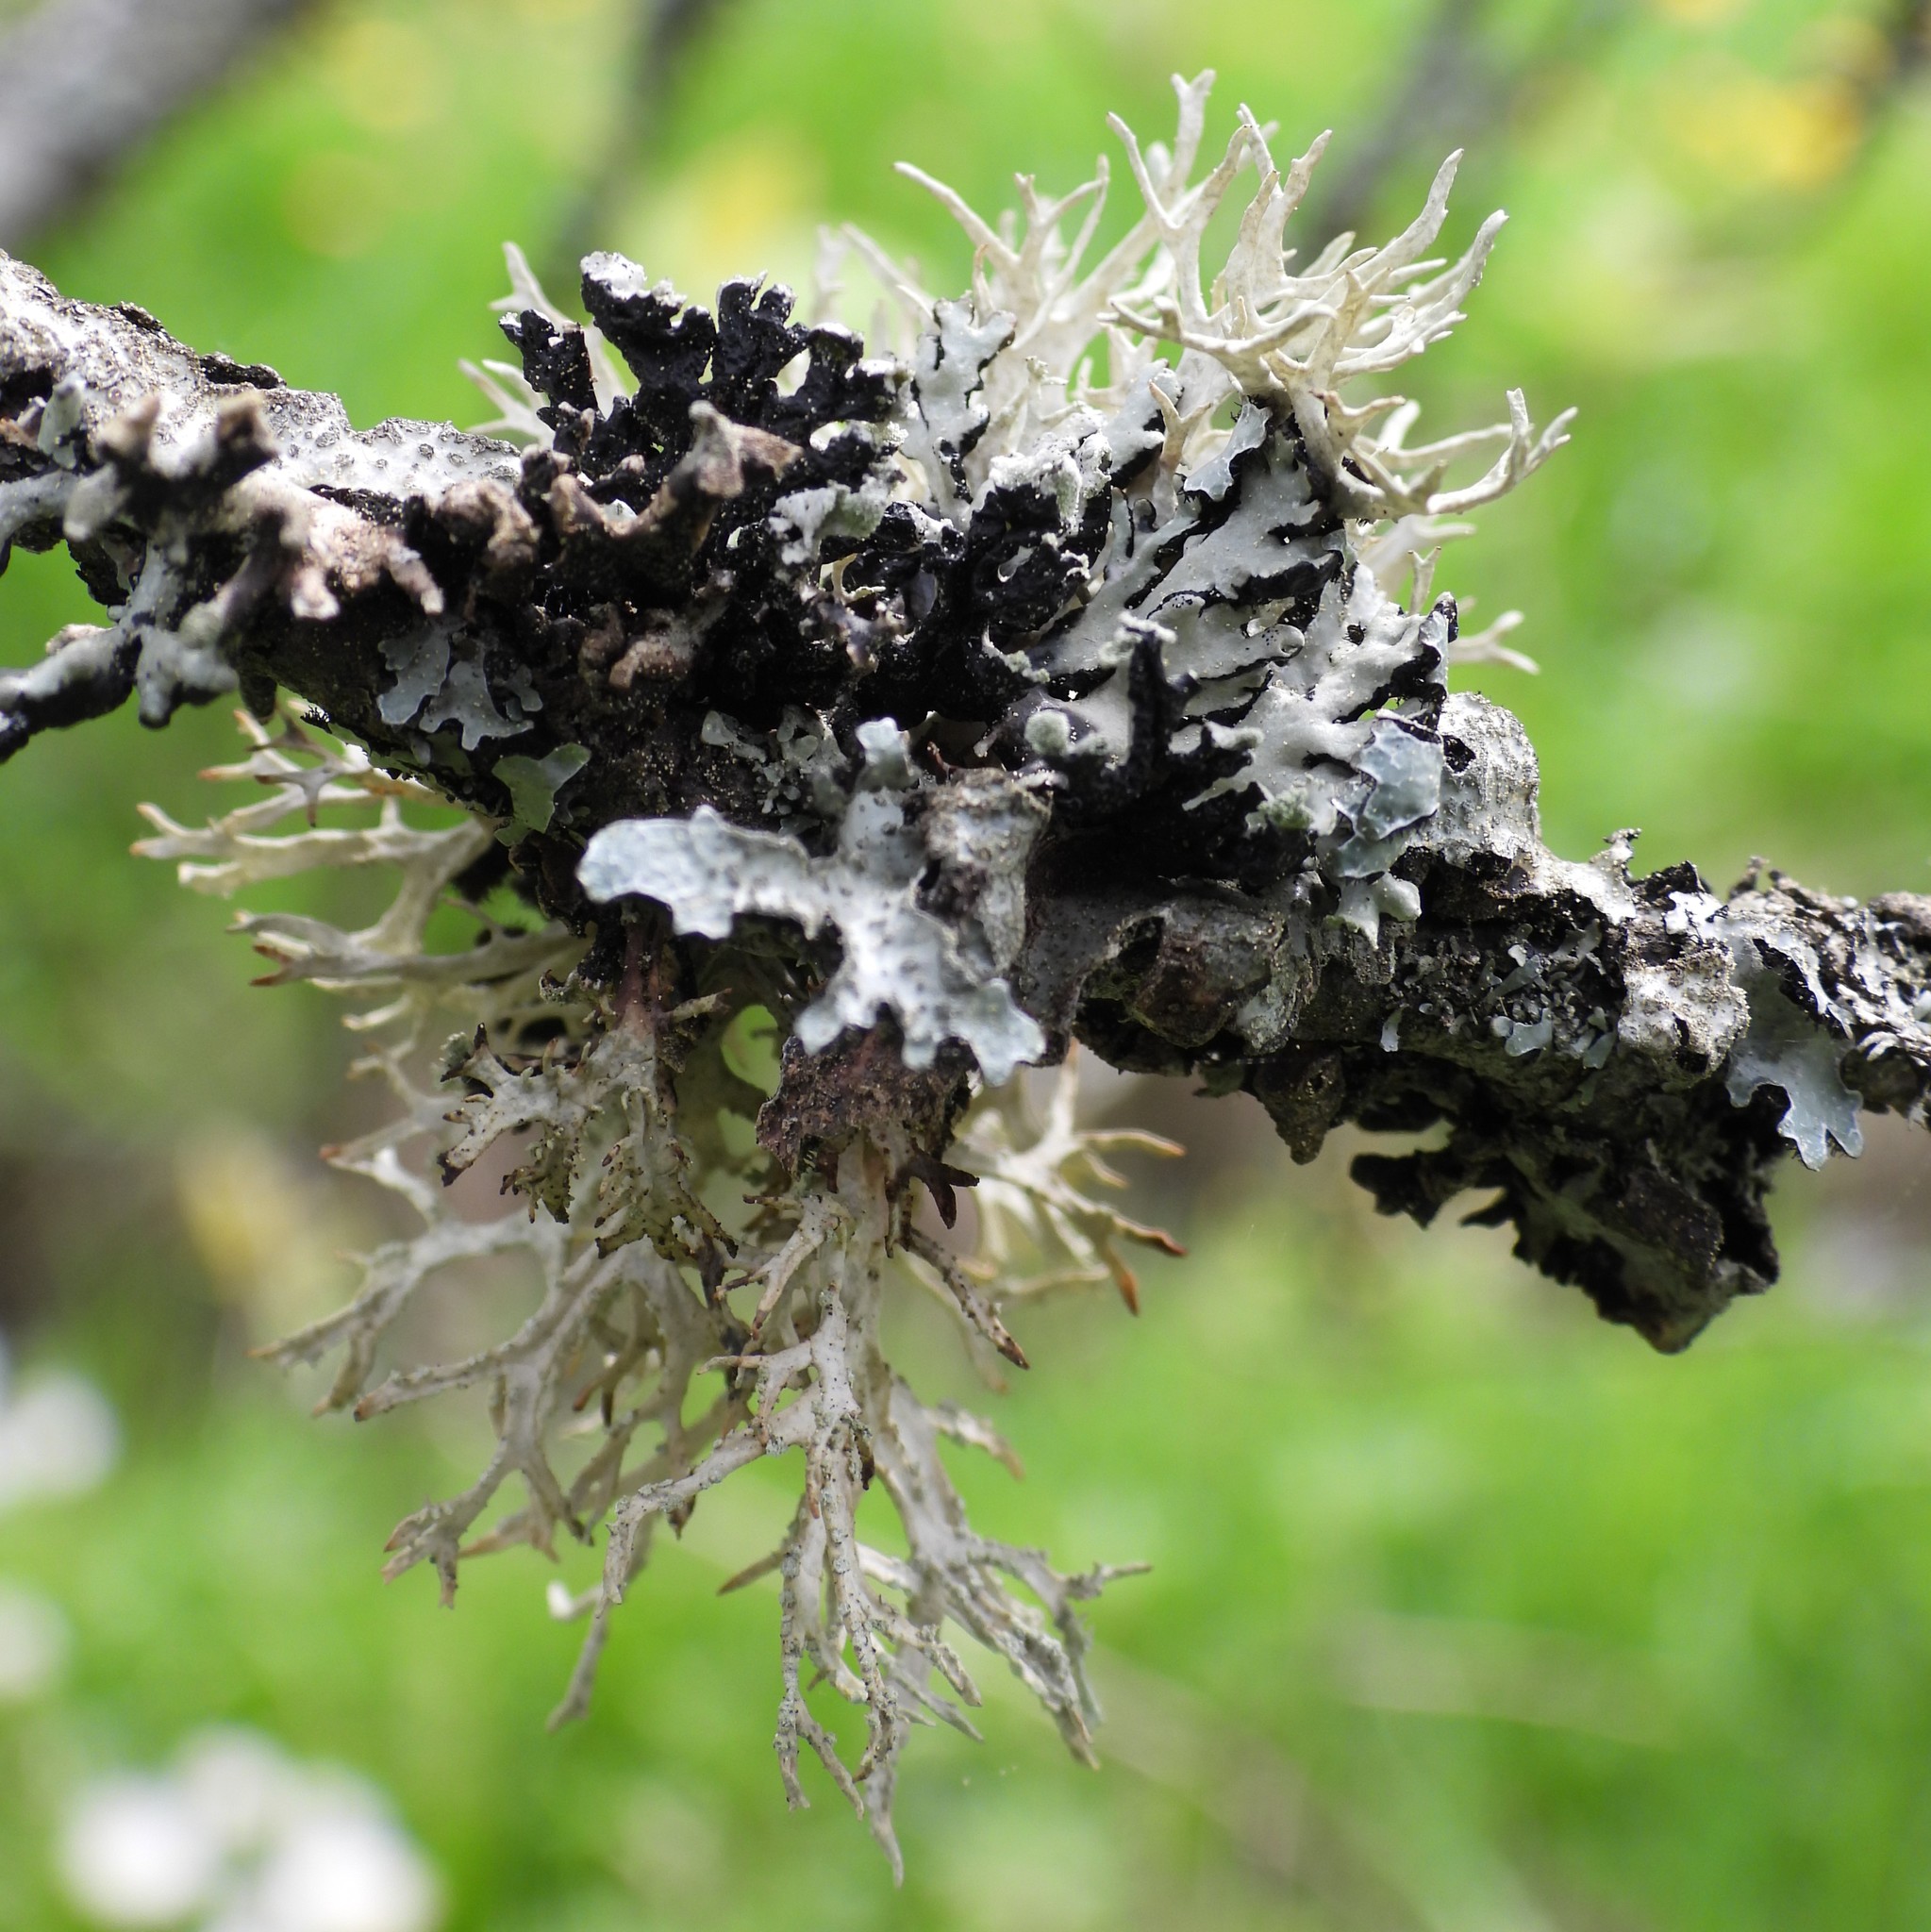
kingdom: Fungi
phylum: Ascomycota
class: Lecanoromycetes
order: Lecanorales
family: Parmeliaceae
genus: Evernia
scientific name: Evernia prunastri
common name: Oak moss
